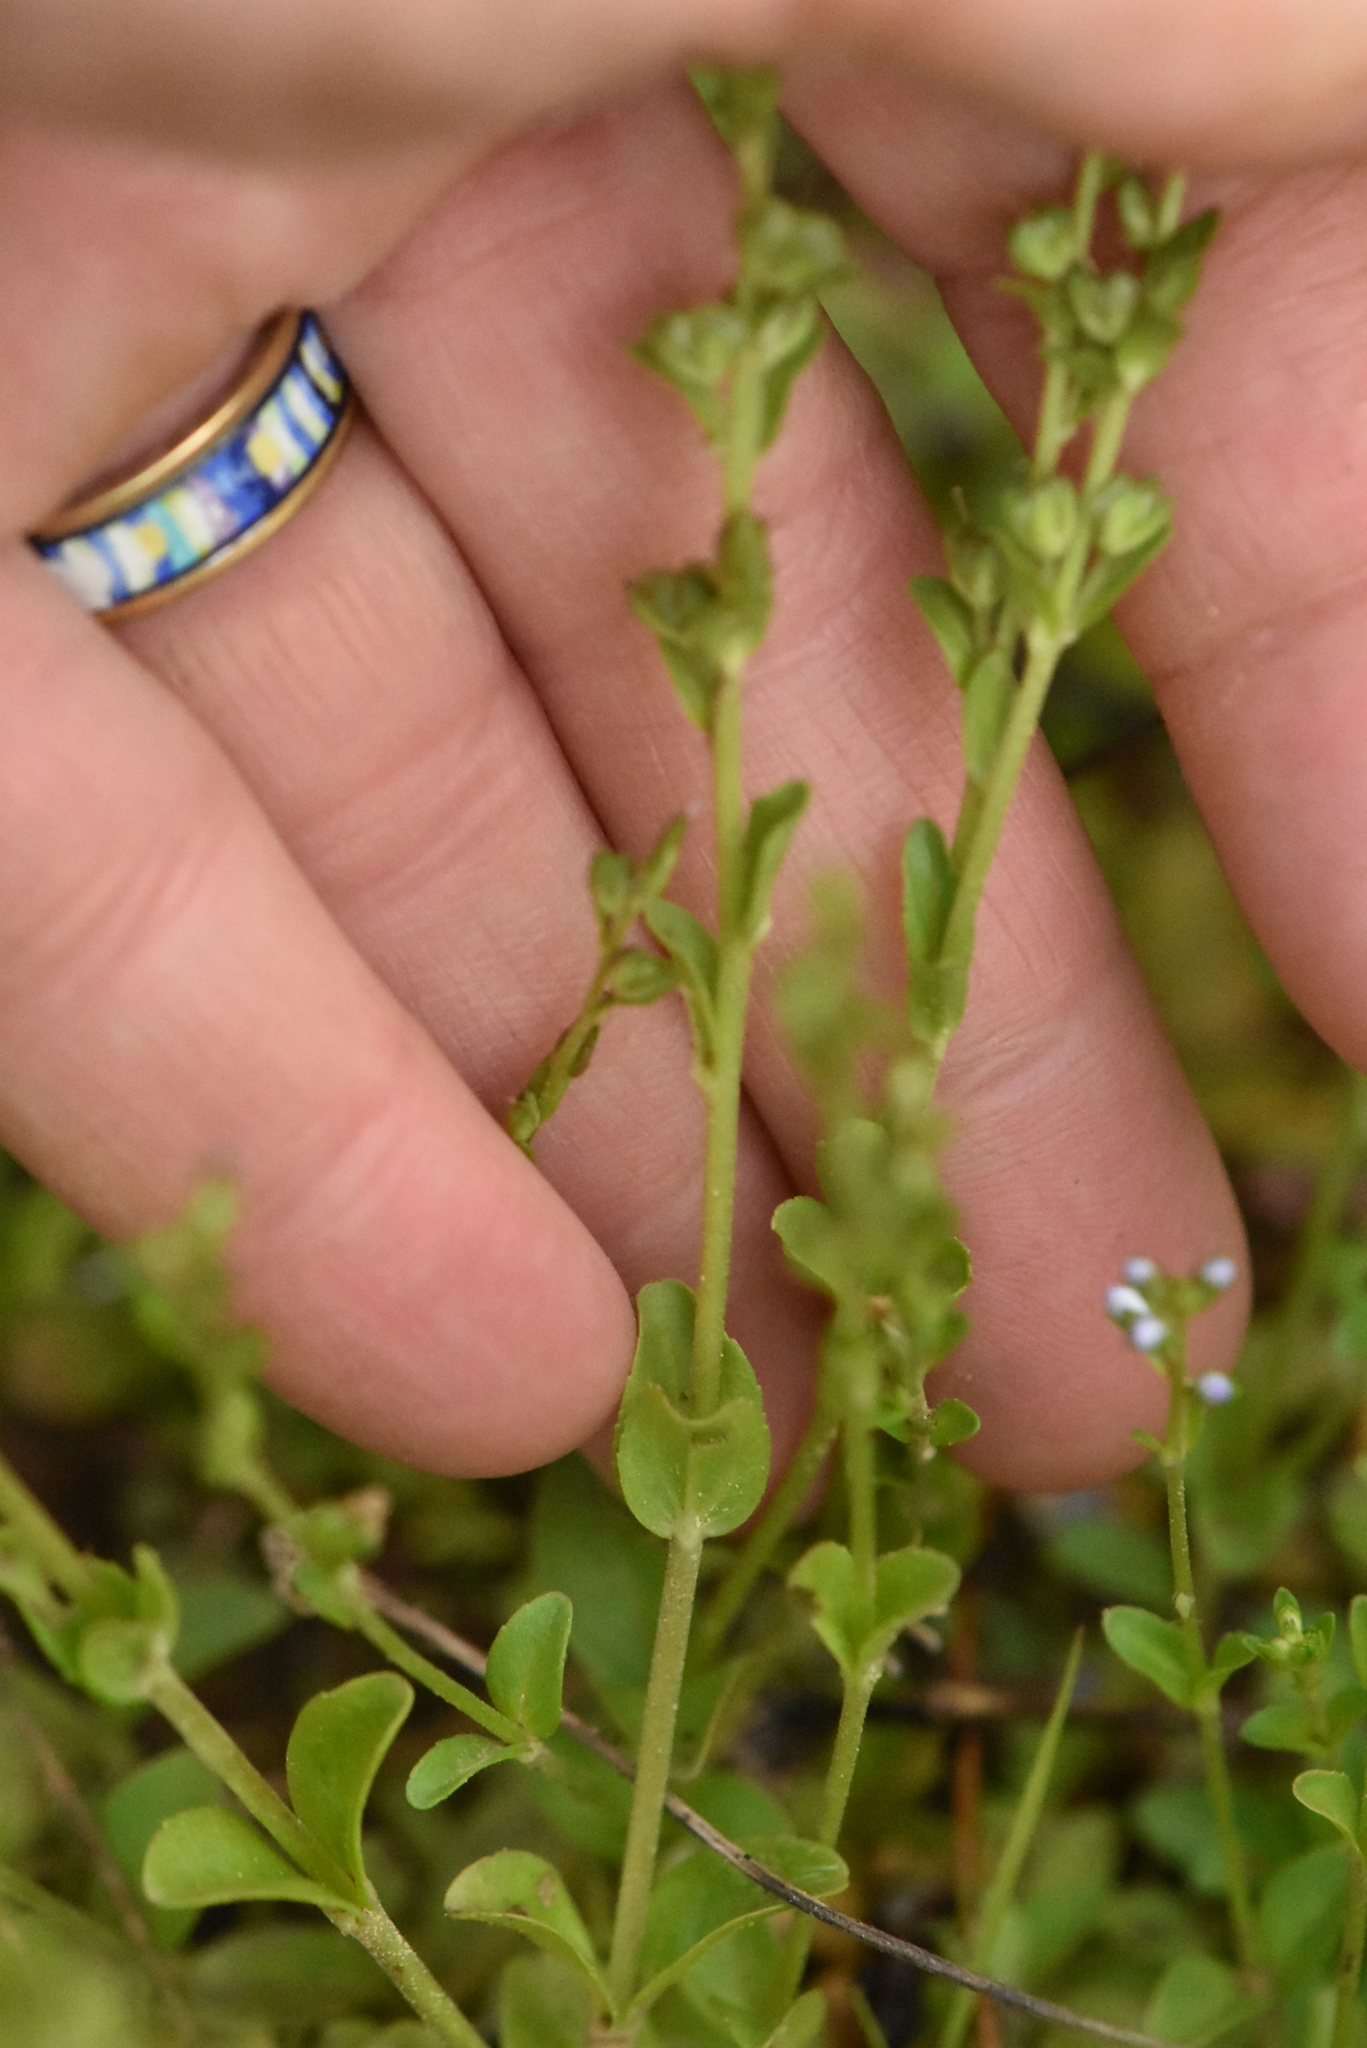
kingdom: Plantae
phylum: Tracheophyta
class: Magnoliopsida
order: Lamiales
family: Plantaginaceae
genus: Veronica
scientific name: Veronica serpyllifolia
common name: Thyme-leaved speedwell
